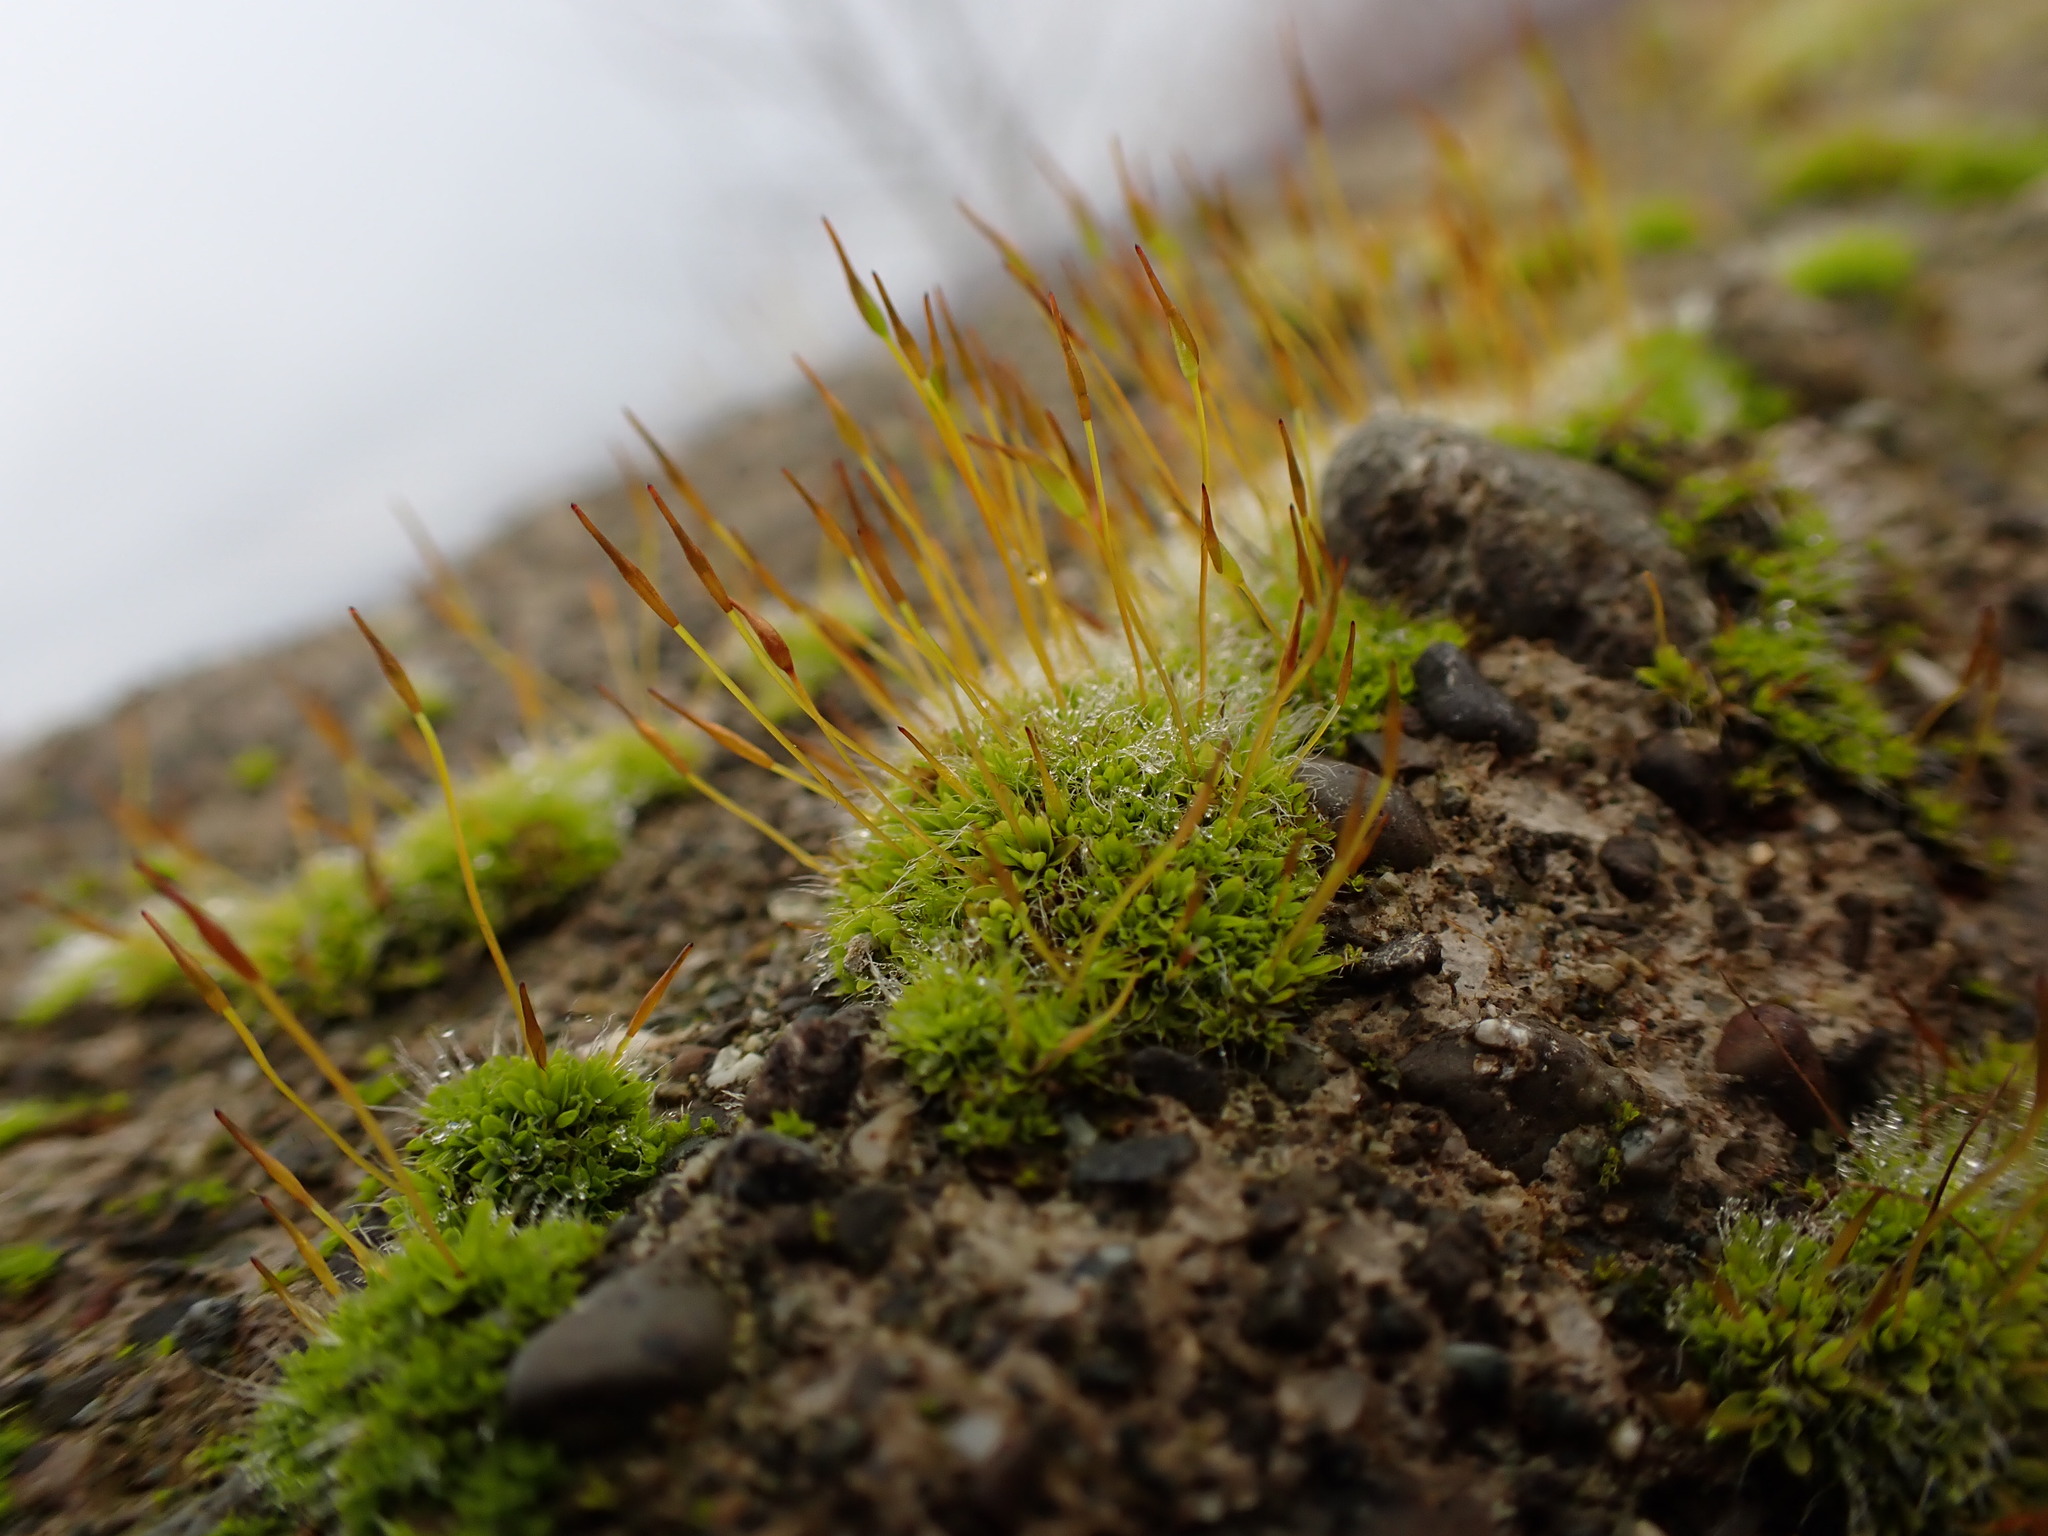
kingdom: Plantae
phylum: Bryophyta
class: Bryopsida
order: Pottiales
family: Pottiaceae
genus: Tortula
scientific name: Tortula muralis
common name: Wall screw-moss
